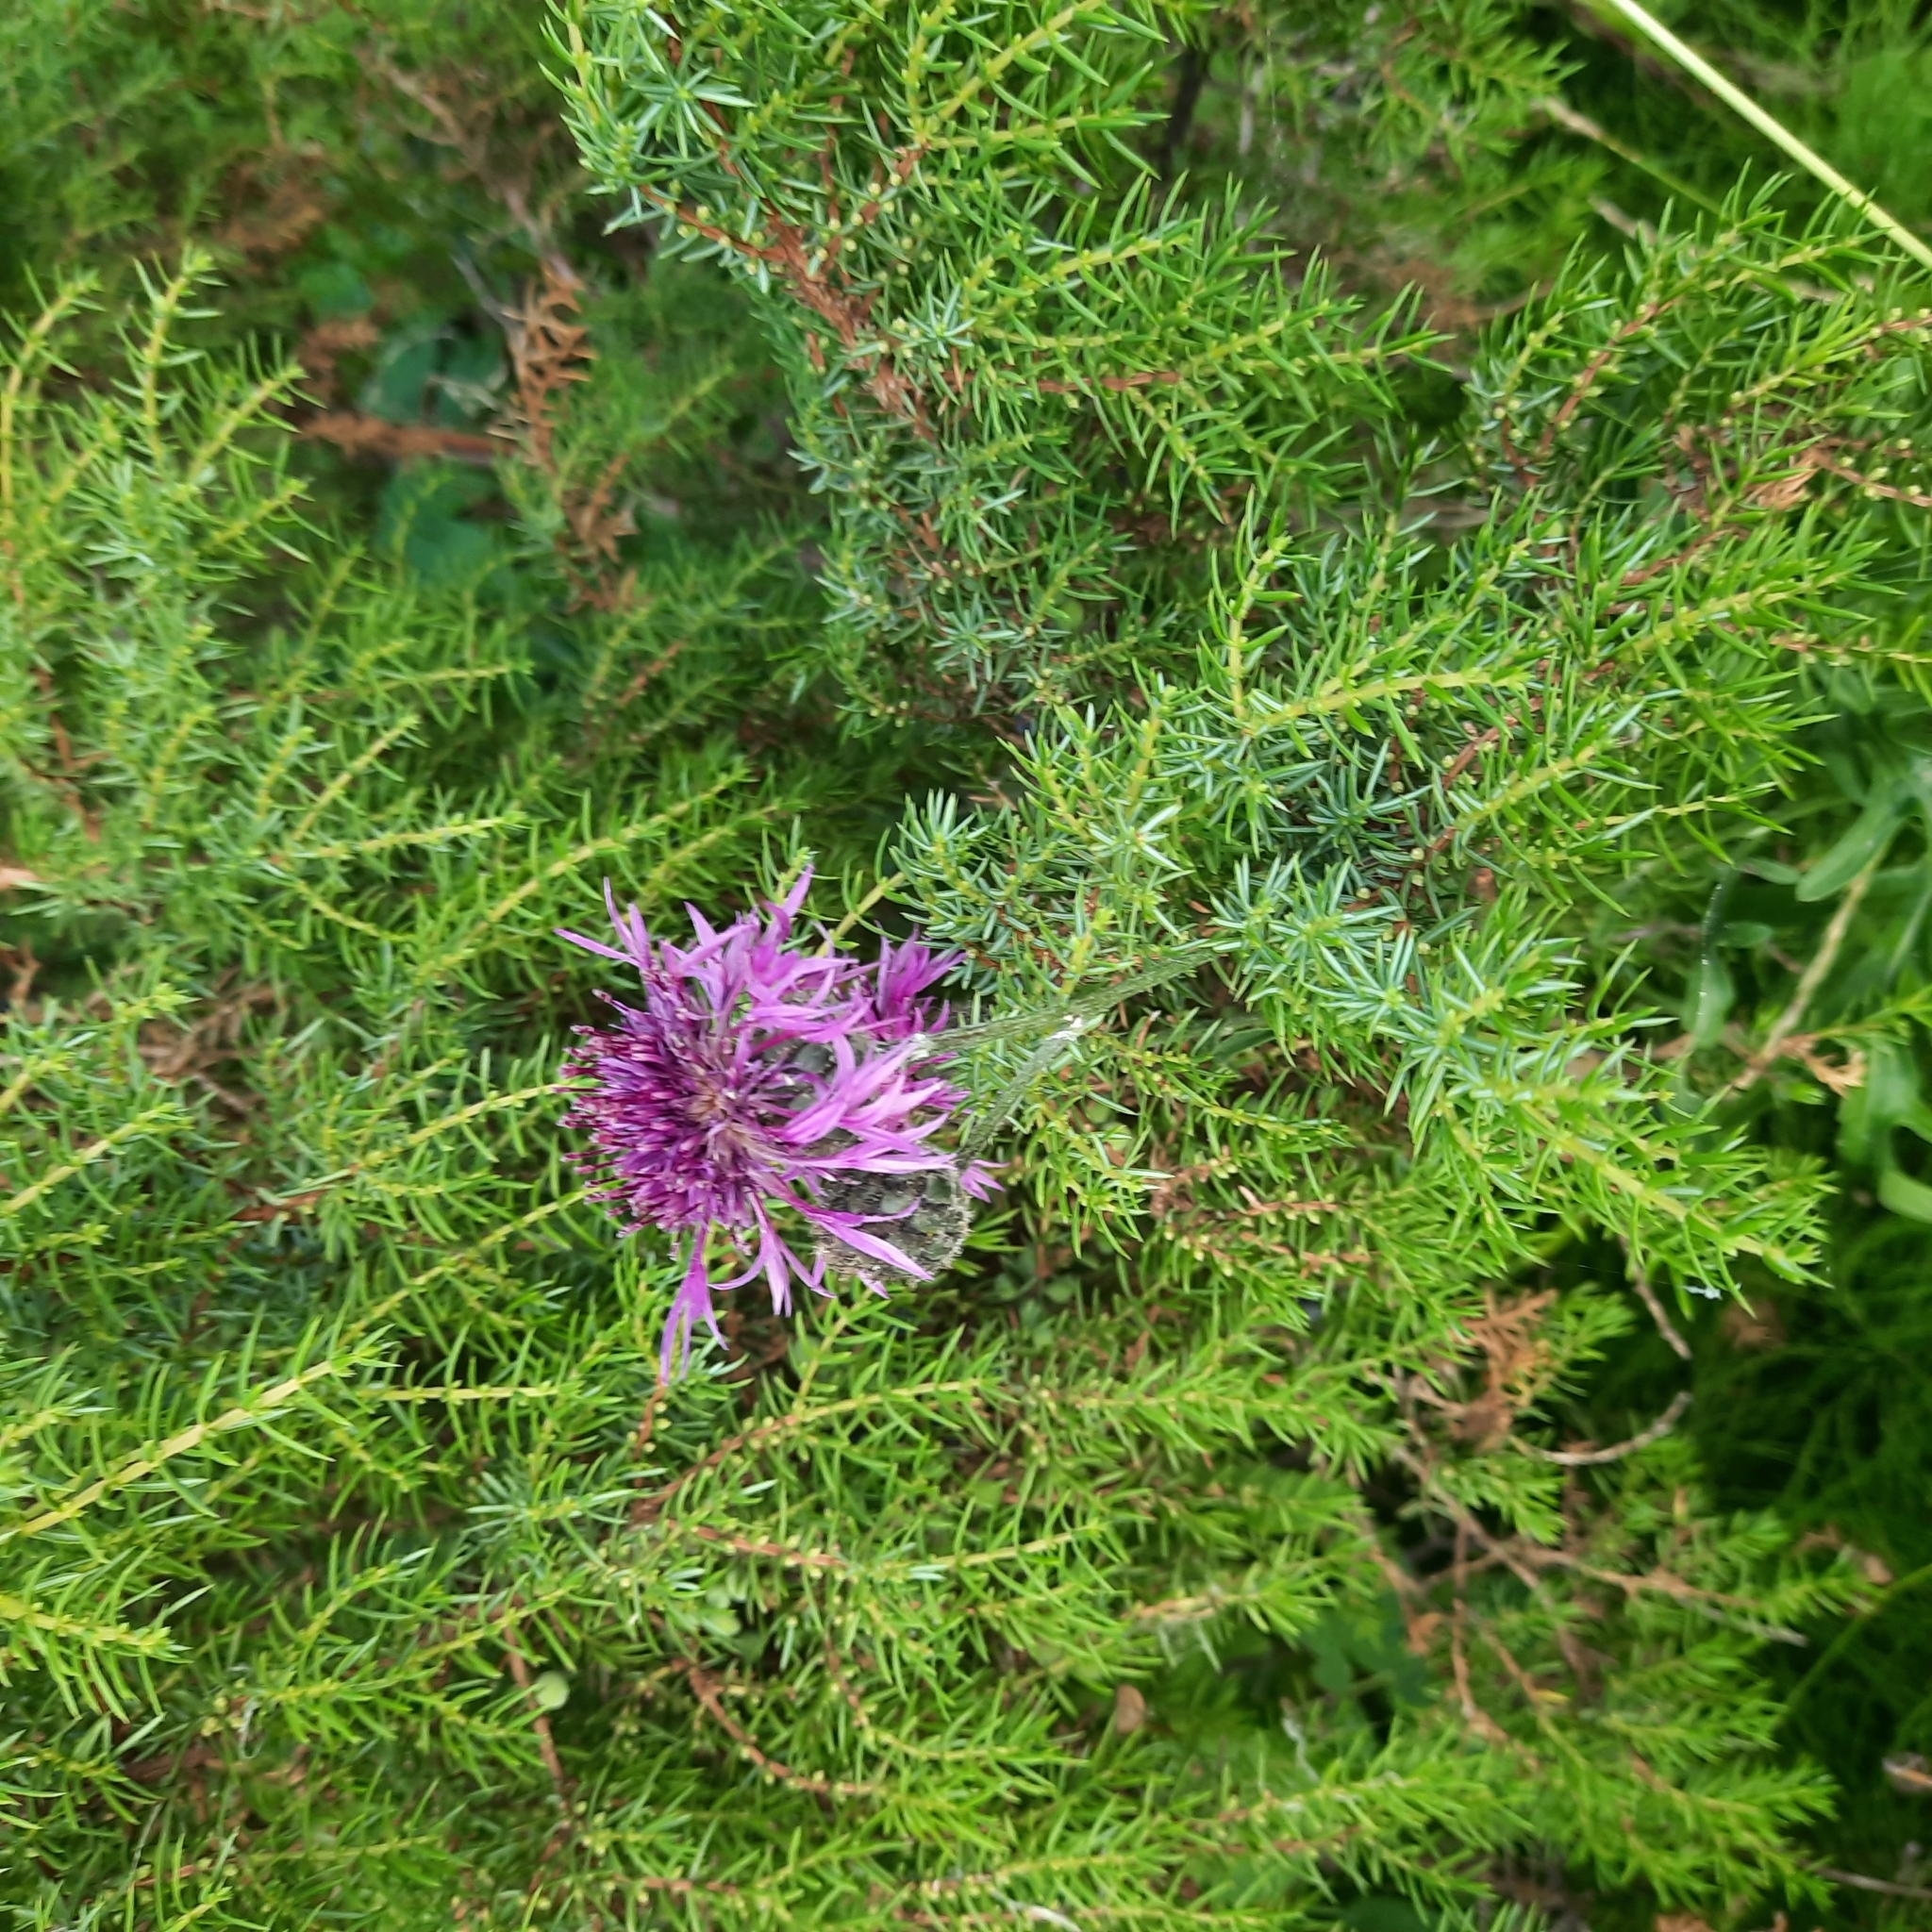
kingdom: Plantae
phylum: Tracheophyta
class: Magnoliopsida
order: Asterales
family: Asteraceae
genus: Centaurea
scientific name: Centaurea scabiosa
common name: Greater knapweed
